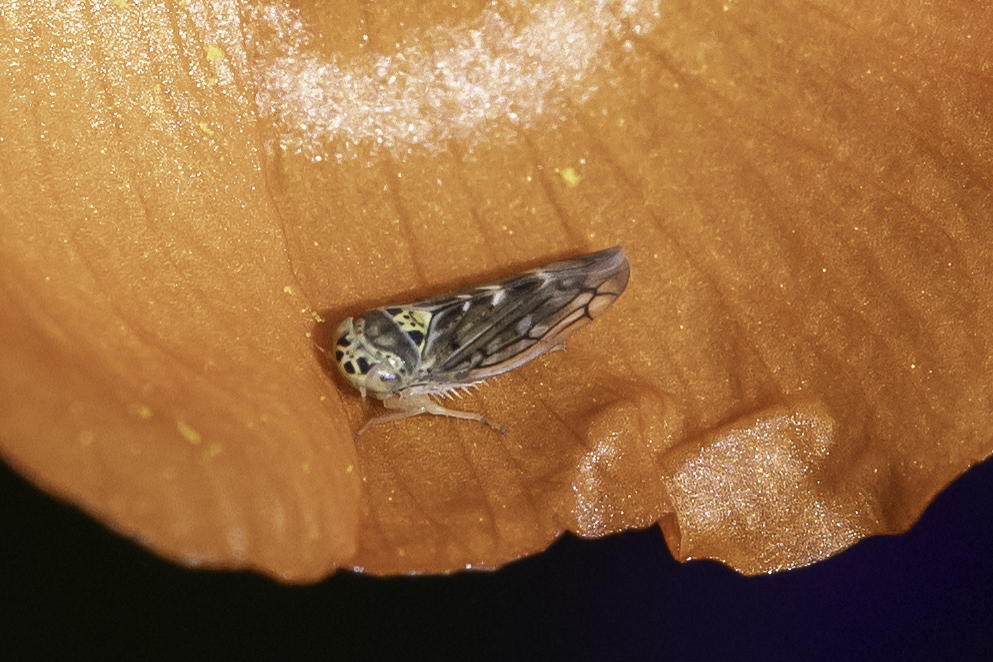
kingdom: Animalia
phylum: Arthropoda
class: Insecta
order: Hemiptera
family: Cicadellidae
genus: Colladonus
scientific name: Colladonus geminatus
